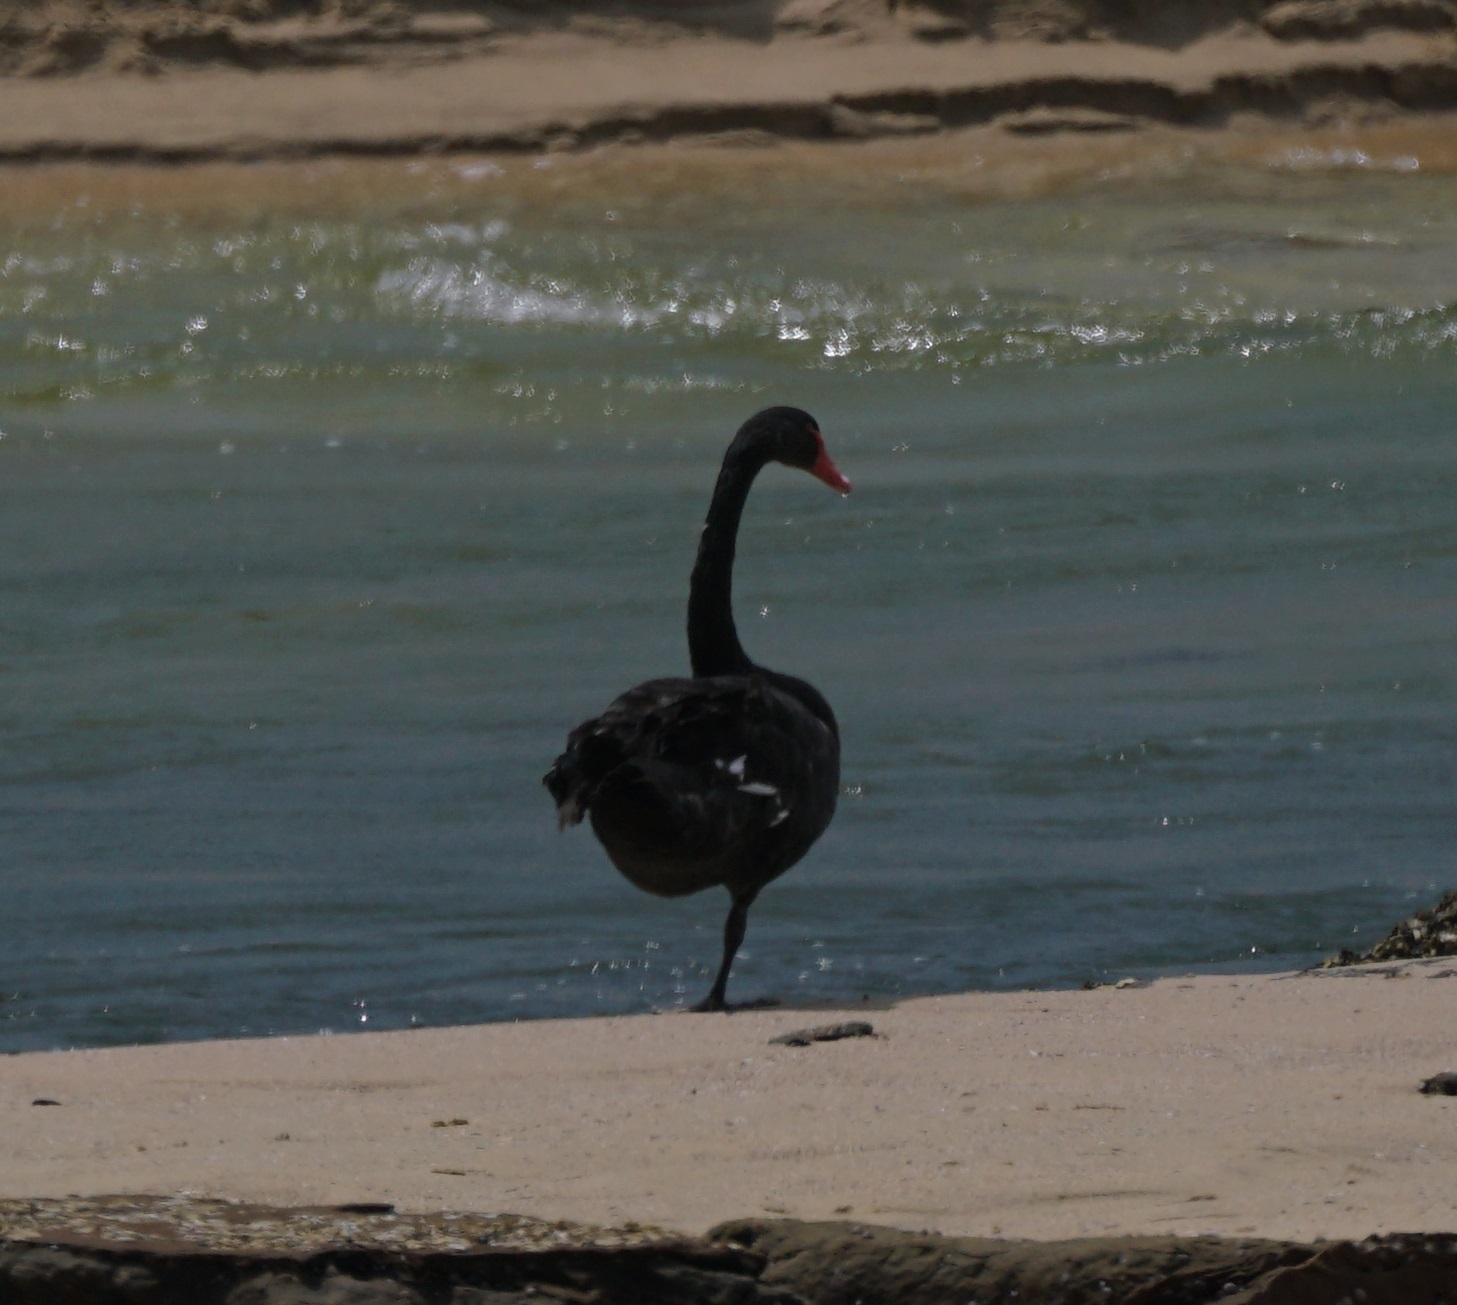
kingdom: Animalia
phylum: Chordata
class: Aves
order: Anseriformes
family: Anatidae
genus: Cygnus
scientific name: Cygnus atratus
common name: Black swan
